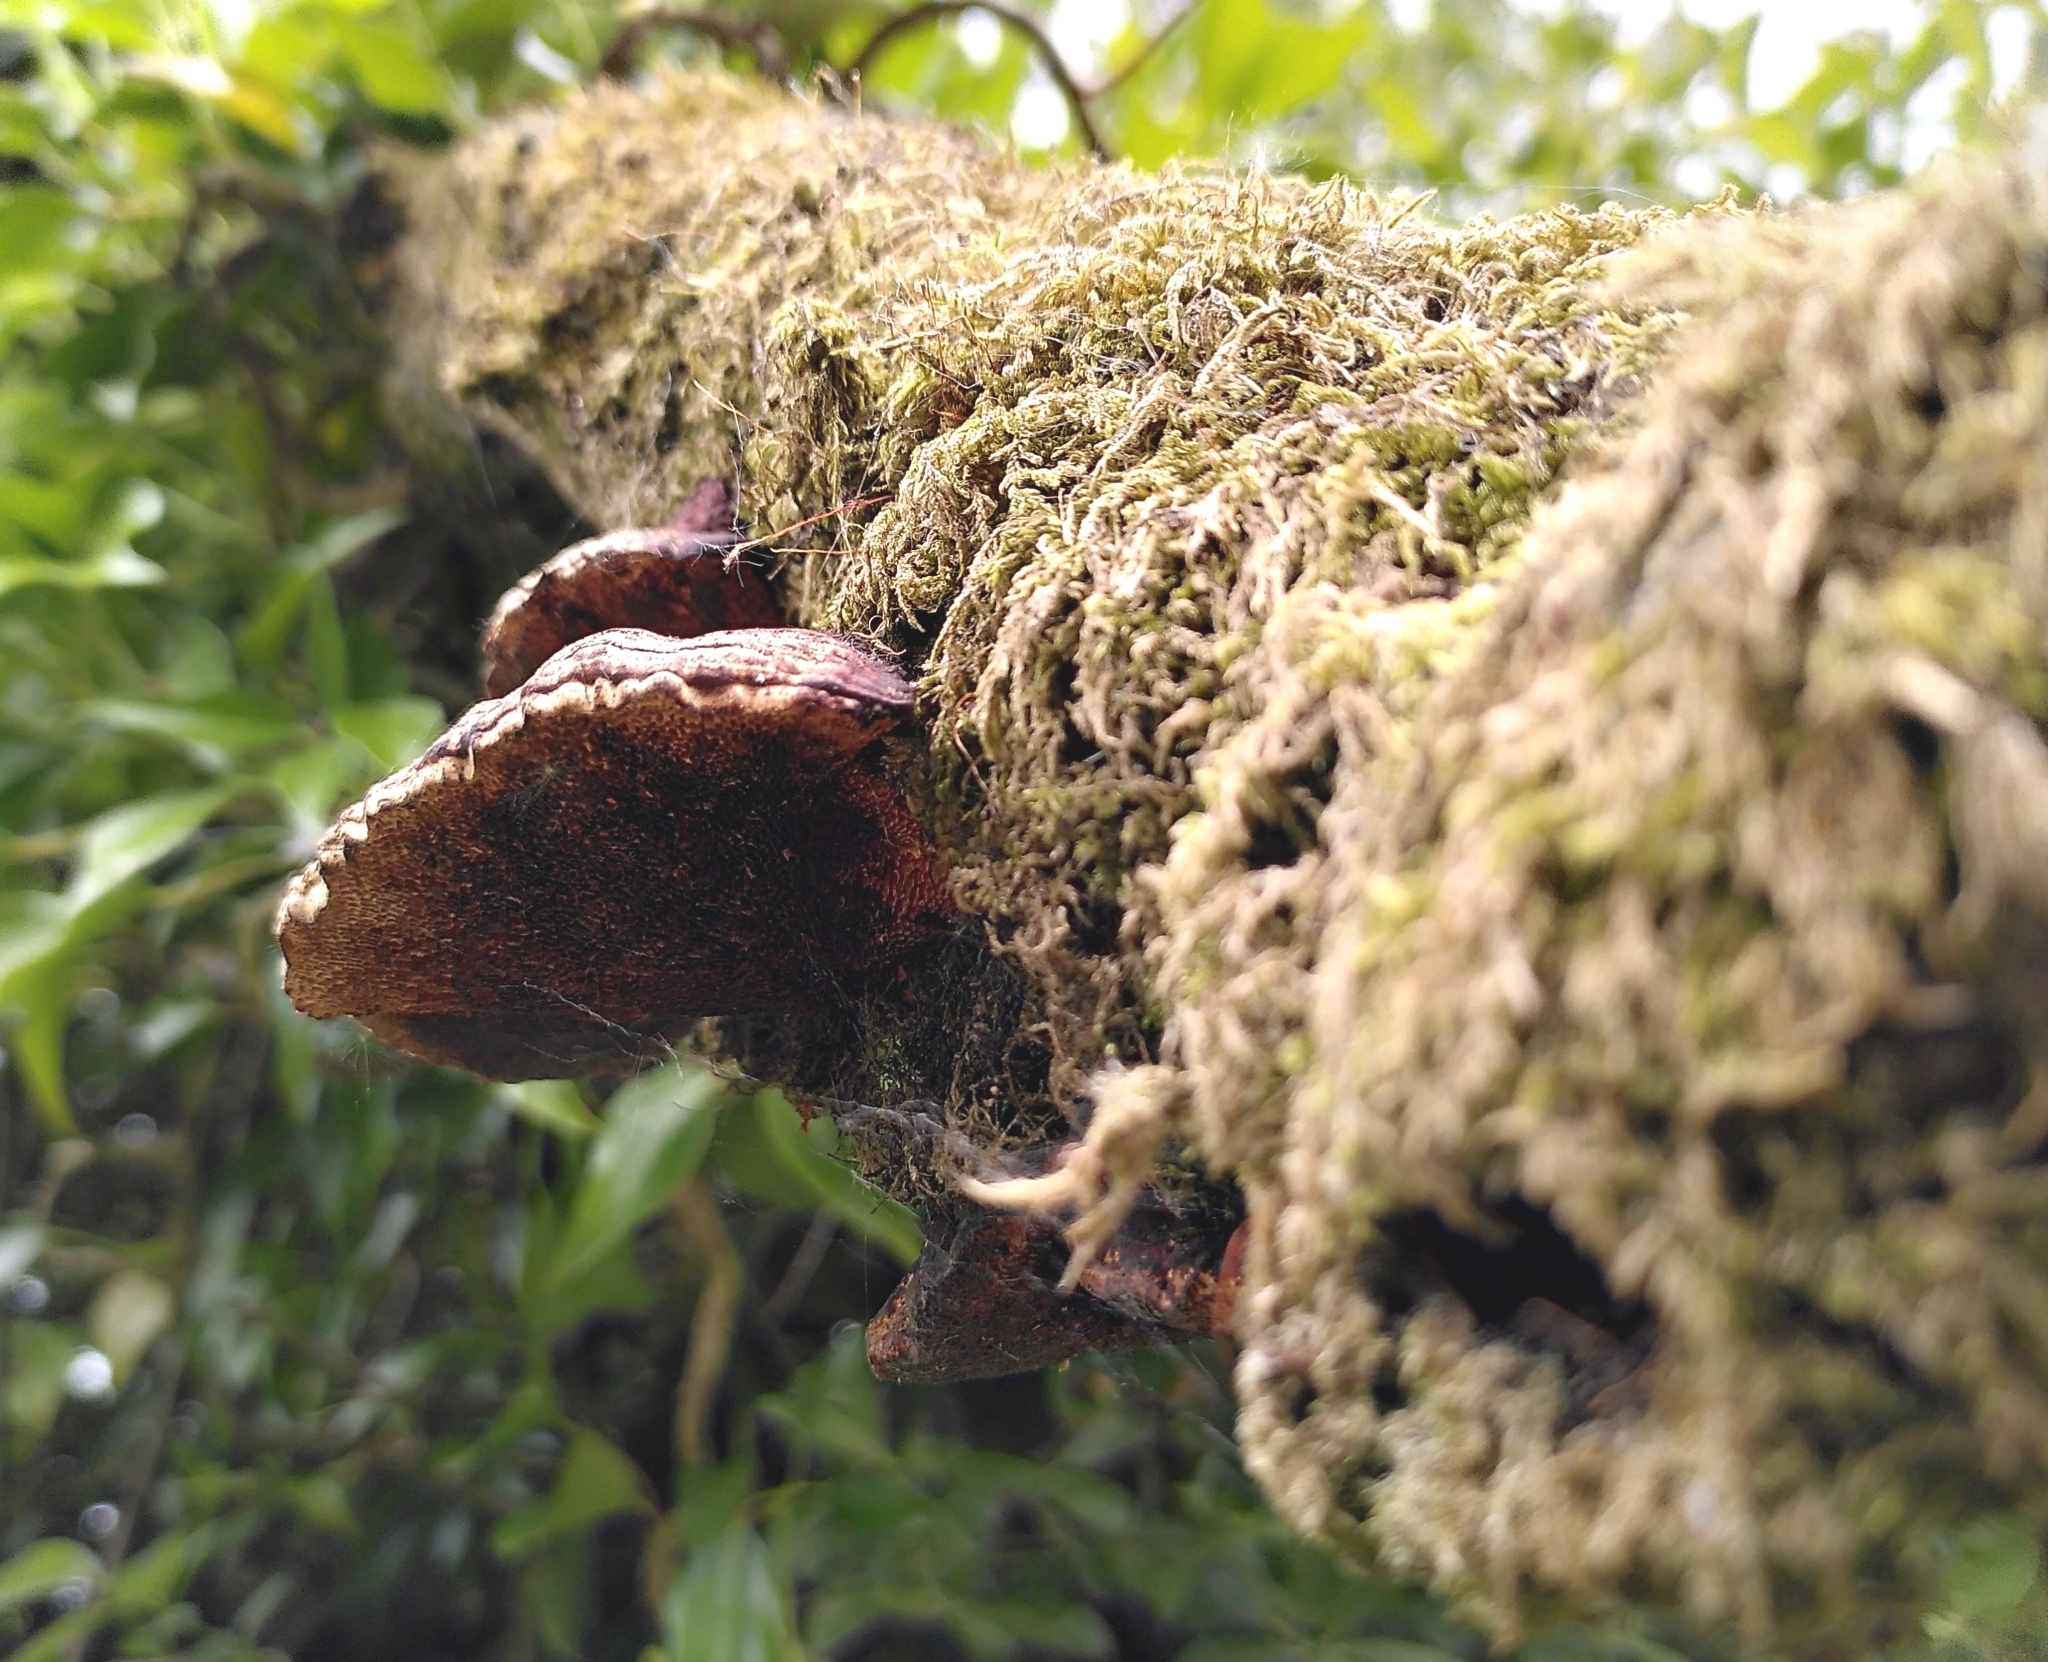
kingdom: Fungi
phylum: Basidiomycota
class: Agaricomycetes
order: Polyporales
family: Polyporaceae
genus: Daedaleopsis
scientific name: Daedaleopsis confragosa
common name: Blushing bracket
